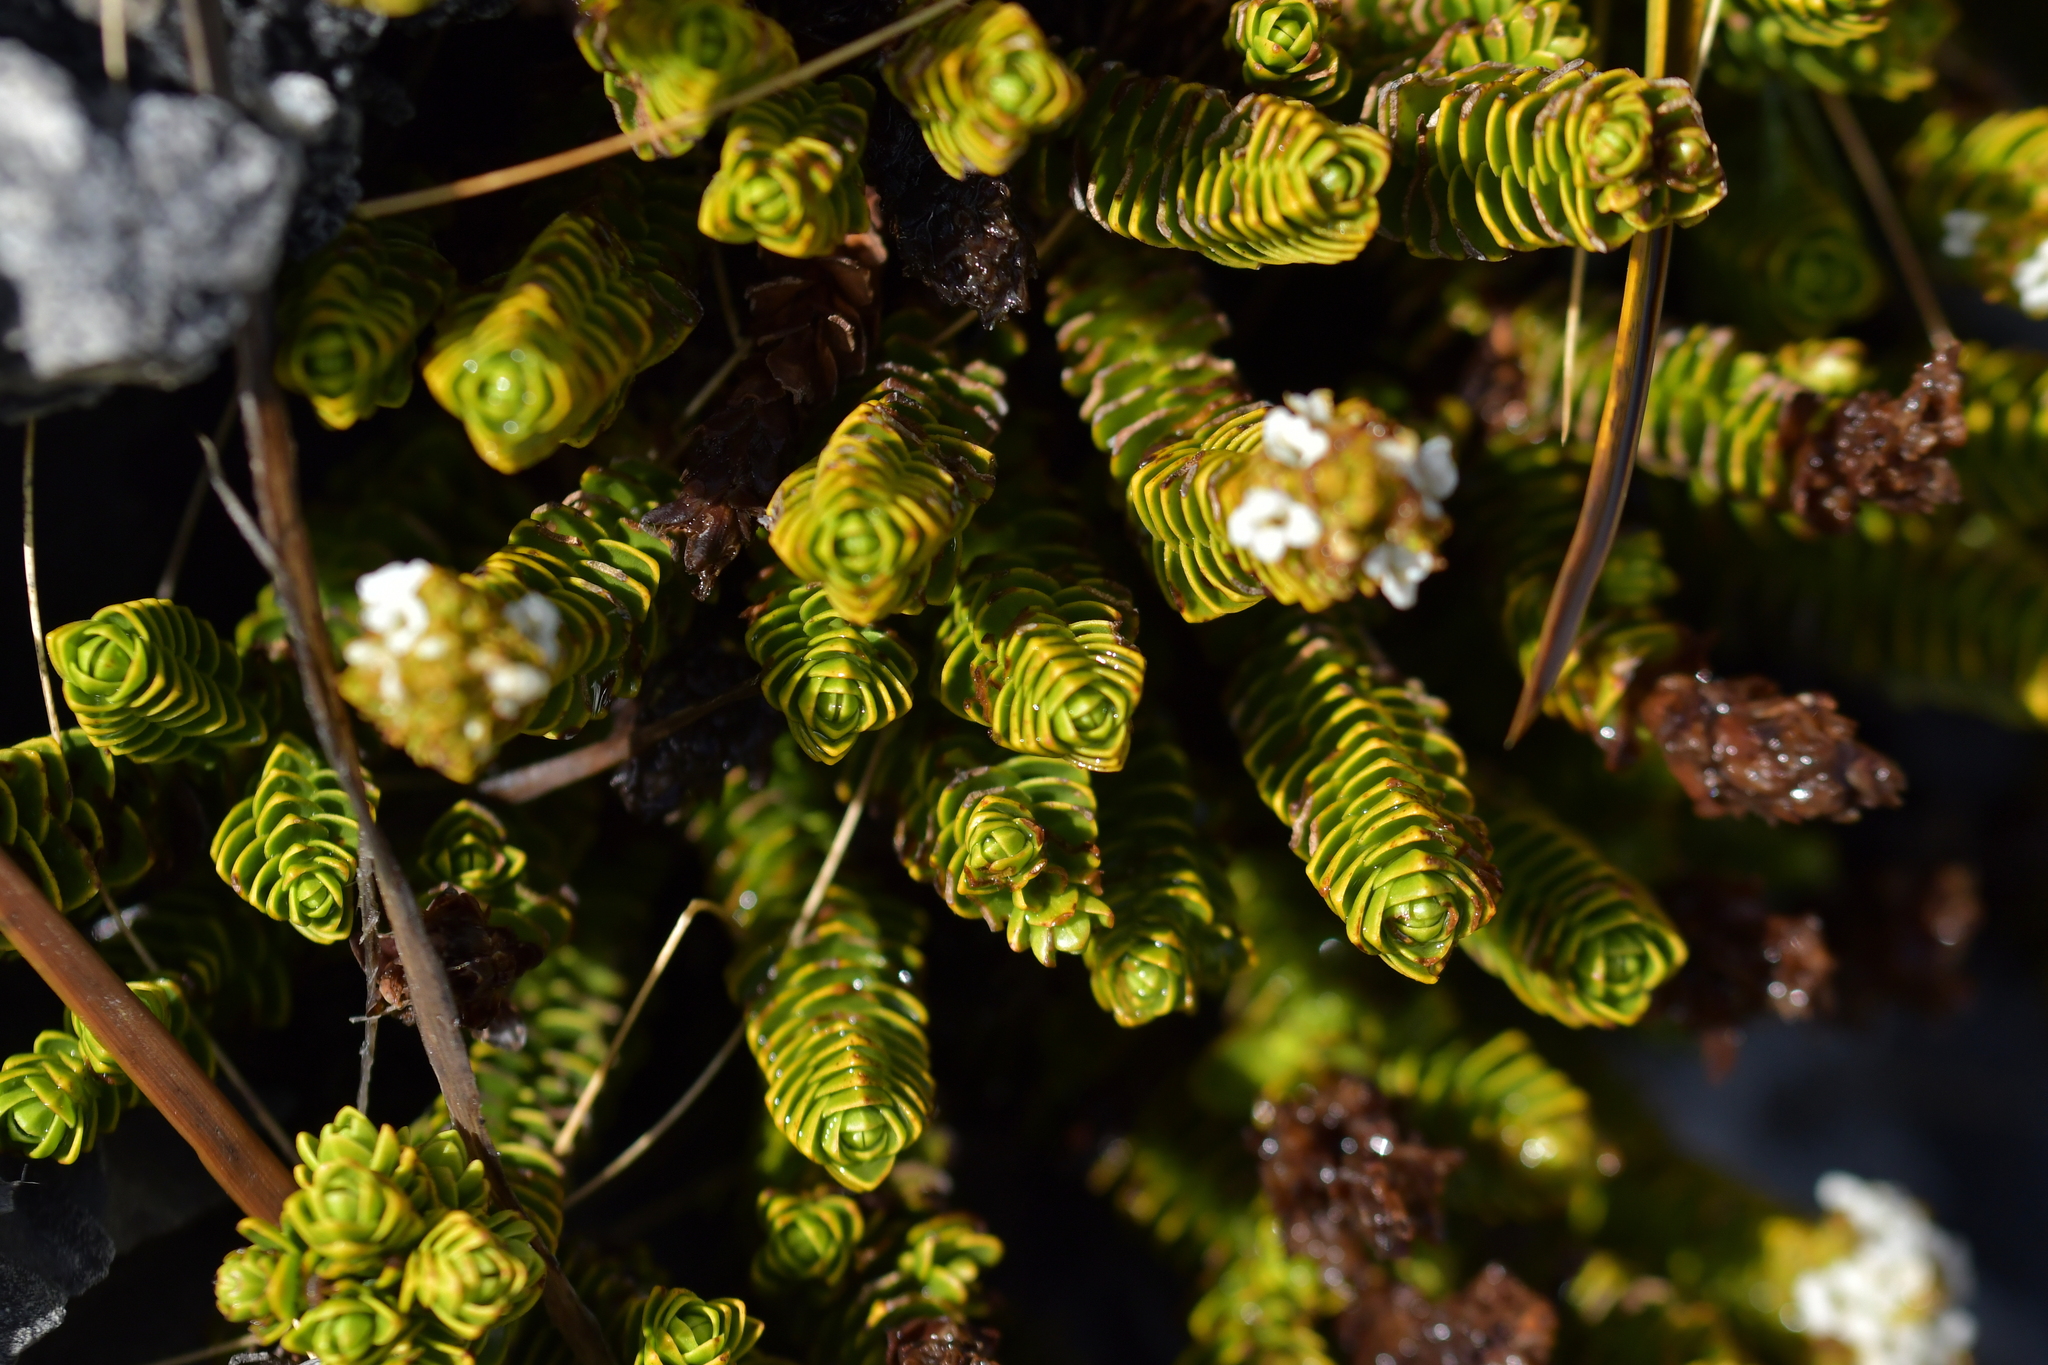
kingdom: Plantae
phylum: Tracheophyta
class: Magnoliopsida
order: Lamiales
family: Plantaginaceae
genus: Veronica
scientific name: Veronica macrocalyx
